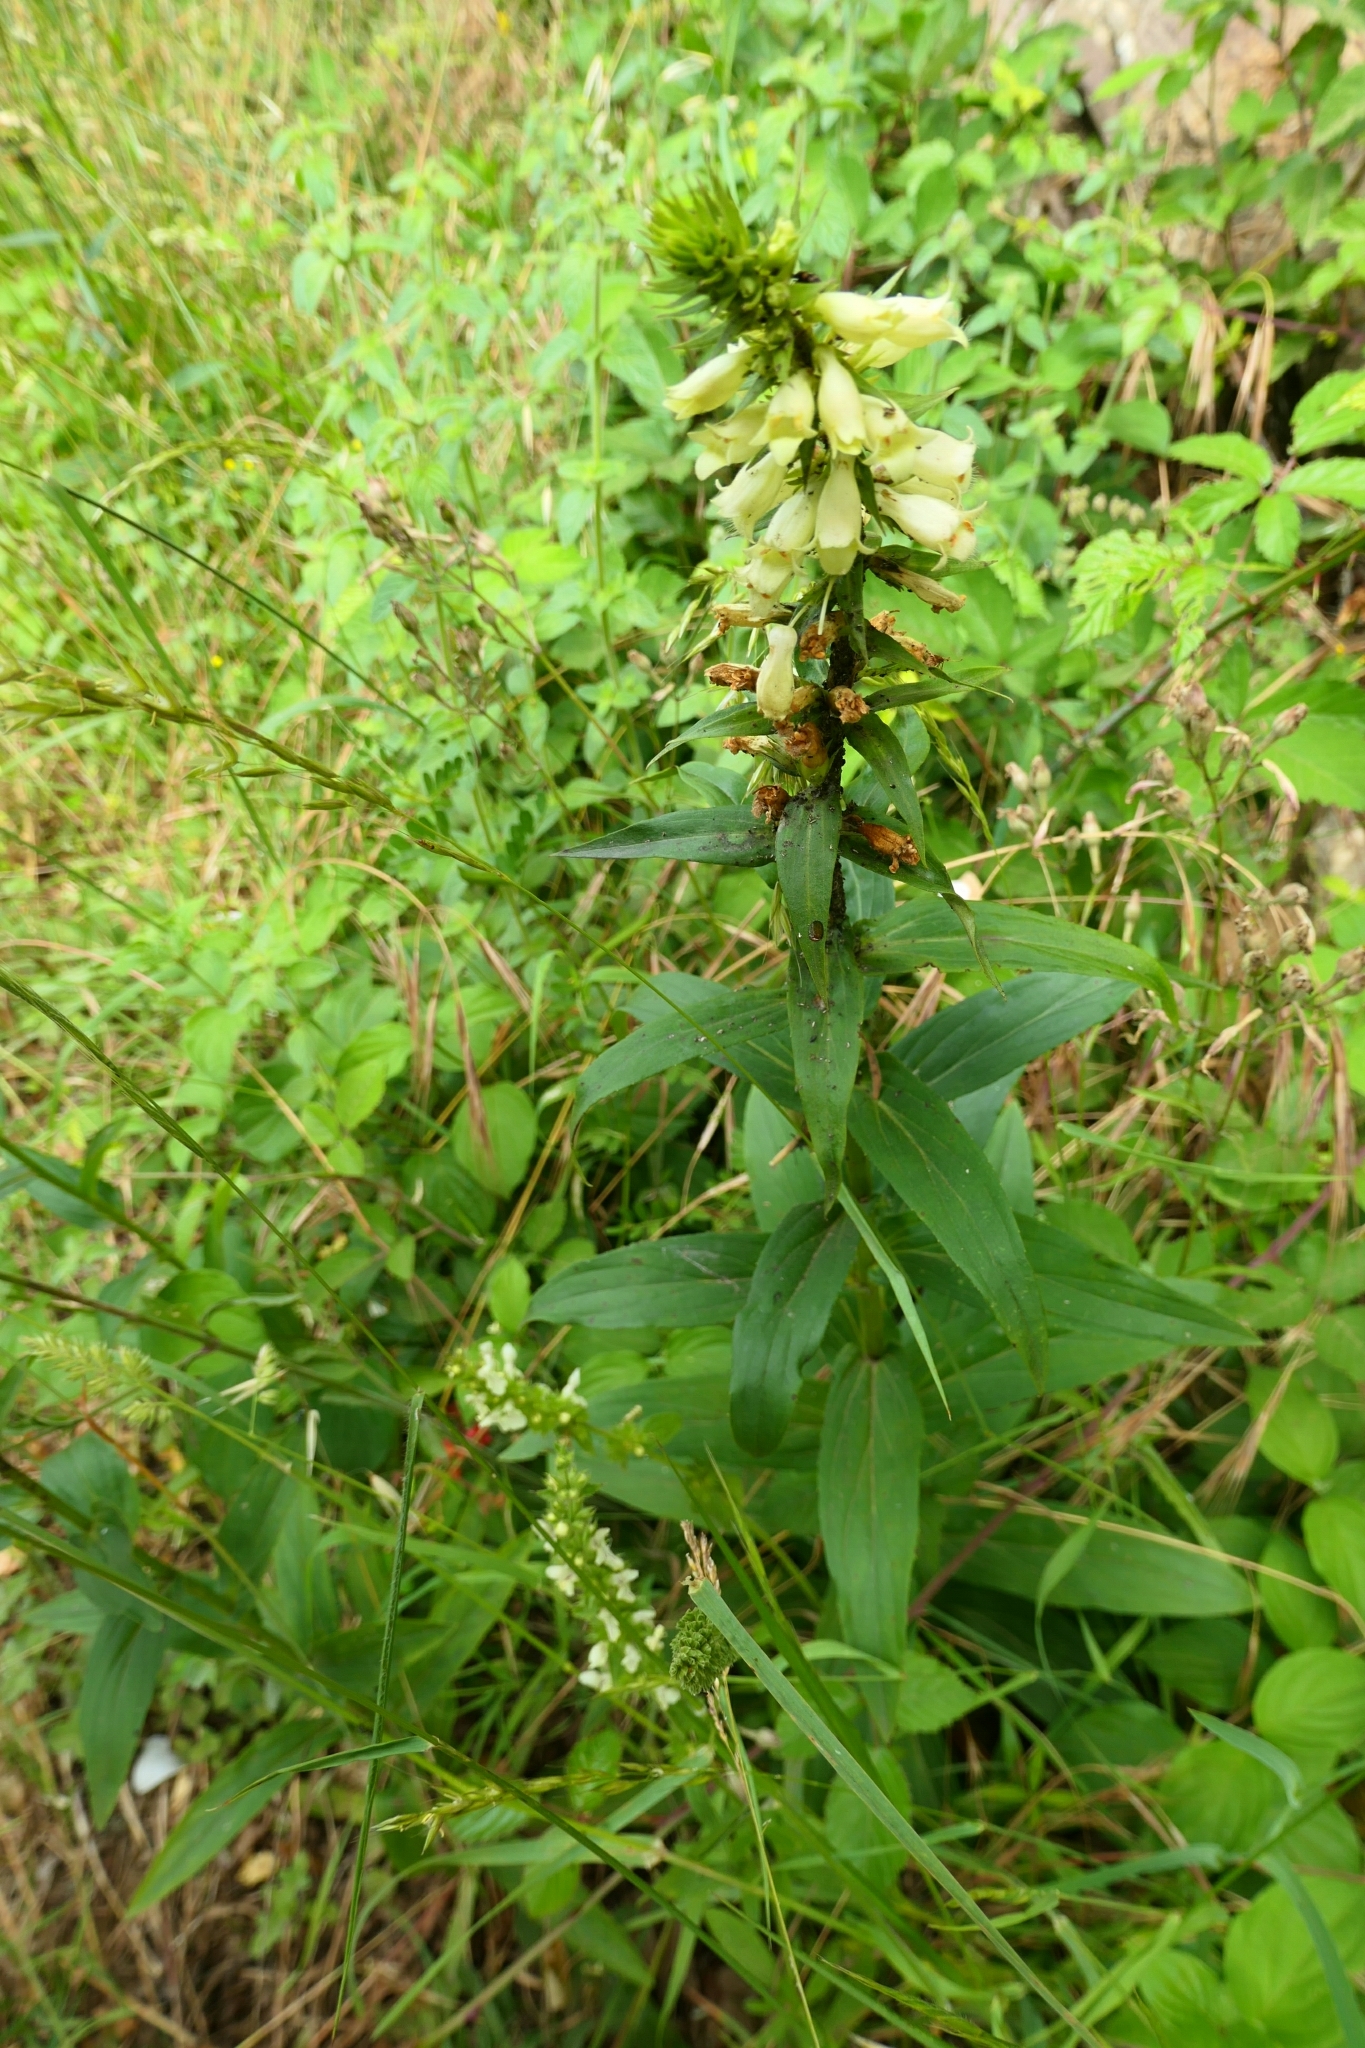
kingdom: Plantae
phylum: Tracheophyta
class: Magnoliopsida
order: Lamiales
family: Plantaginaceae
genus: Digitalis
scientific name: Digitalis lutea
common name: Straw foxglove
